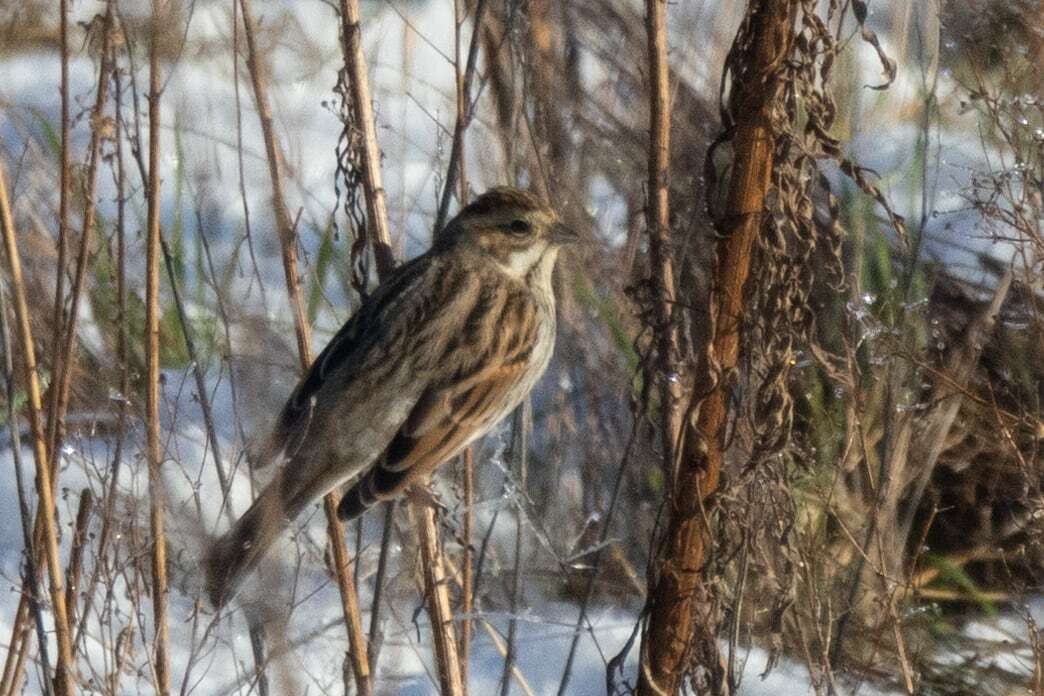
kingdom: Animalia
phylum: Chordata
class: Aves
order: Passeriformes
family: Emberizidae
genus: Emberiza
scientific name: Emberiza schoeniclus
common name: Reed bunting
